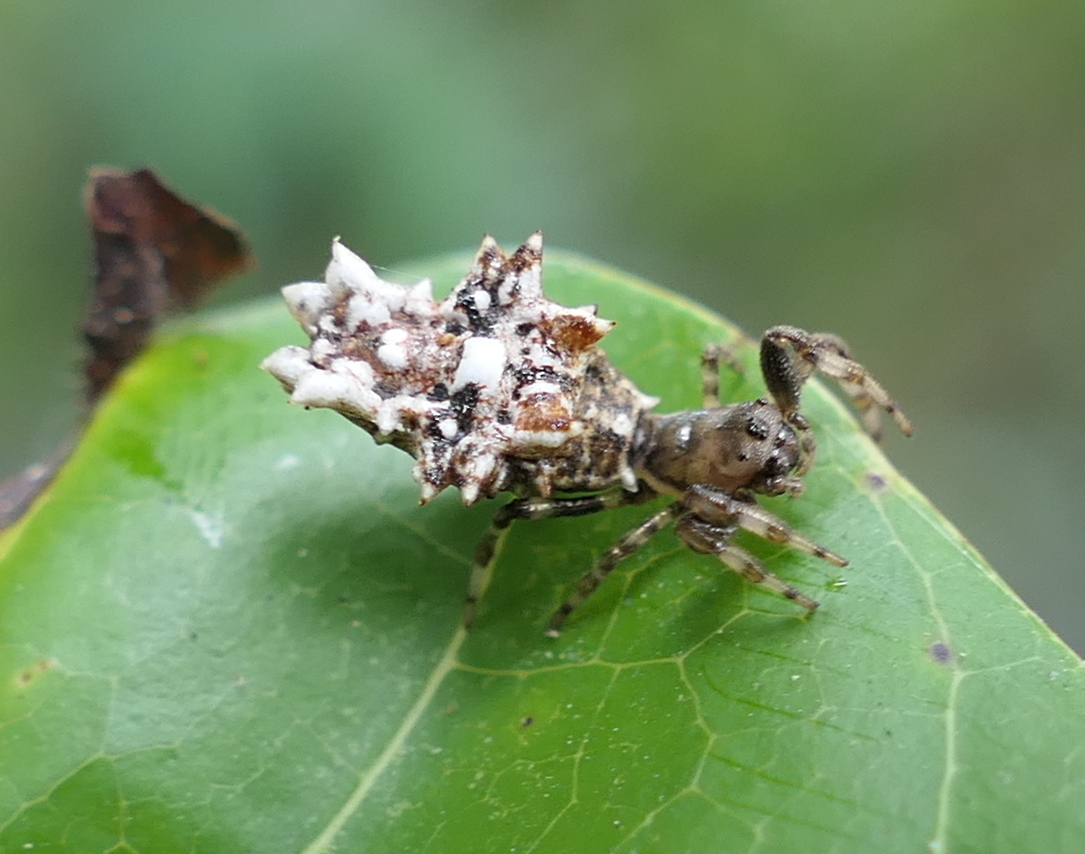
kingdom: Animalia
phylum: Arthropoda
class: Arachnida
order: Araneae
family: Araneidae
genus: Micrathena
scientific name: Micrathena horrida
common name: Orb weavers
